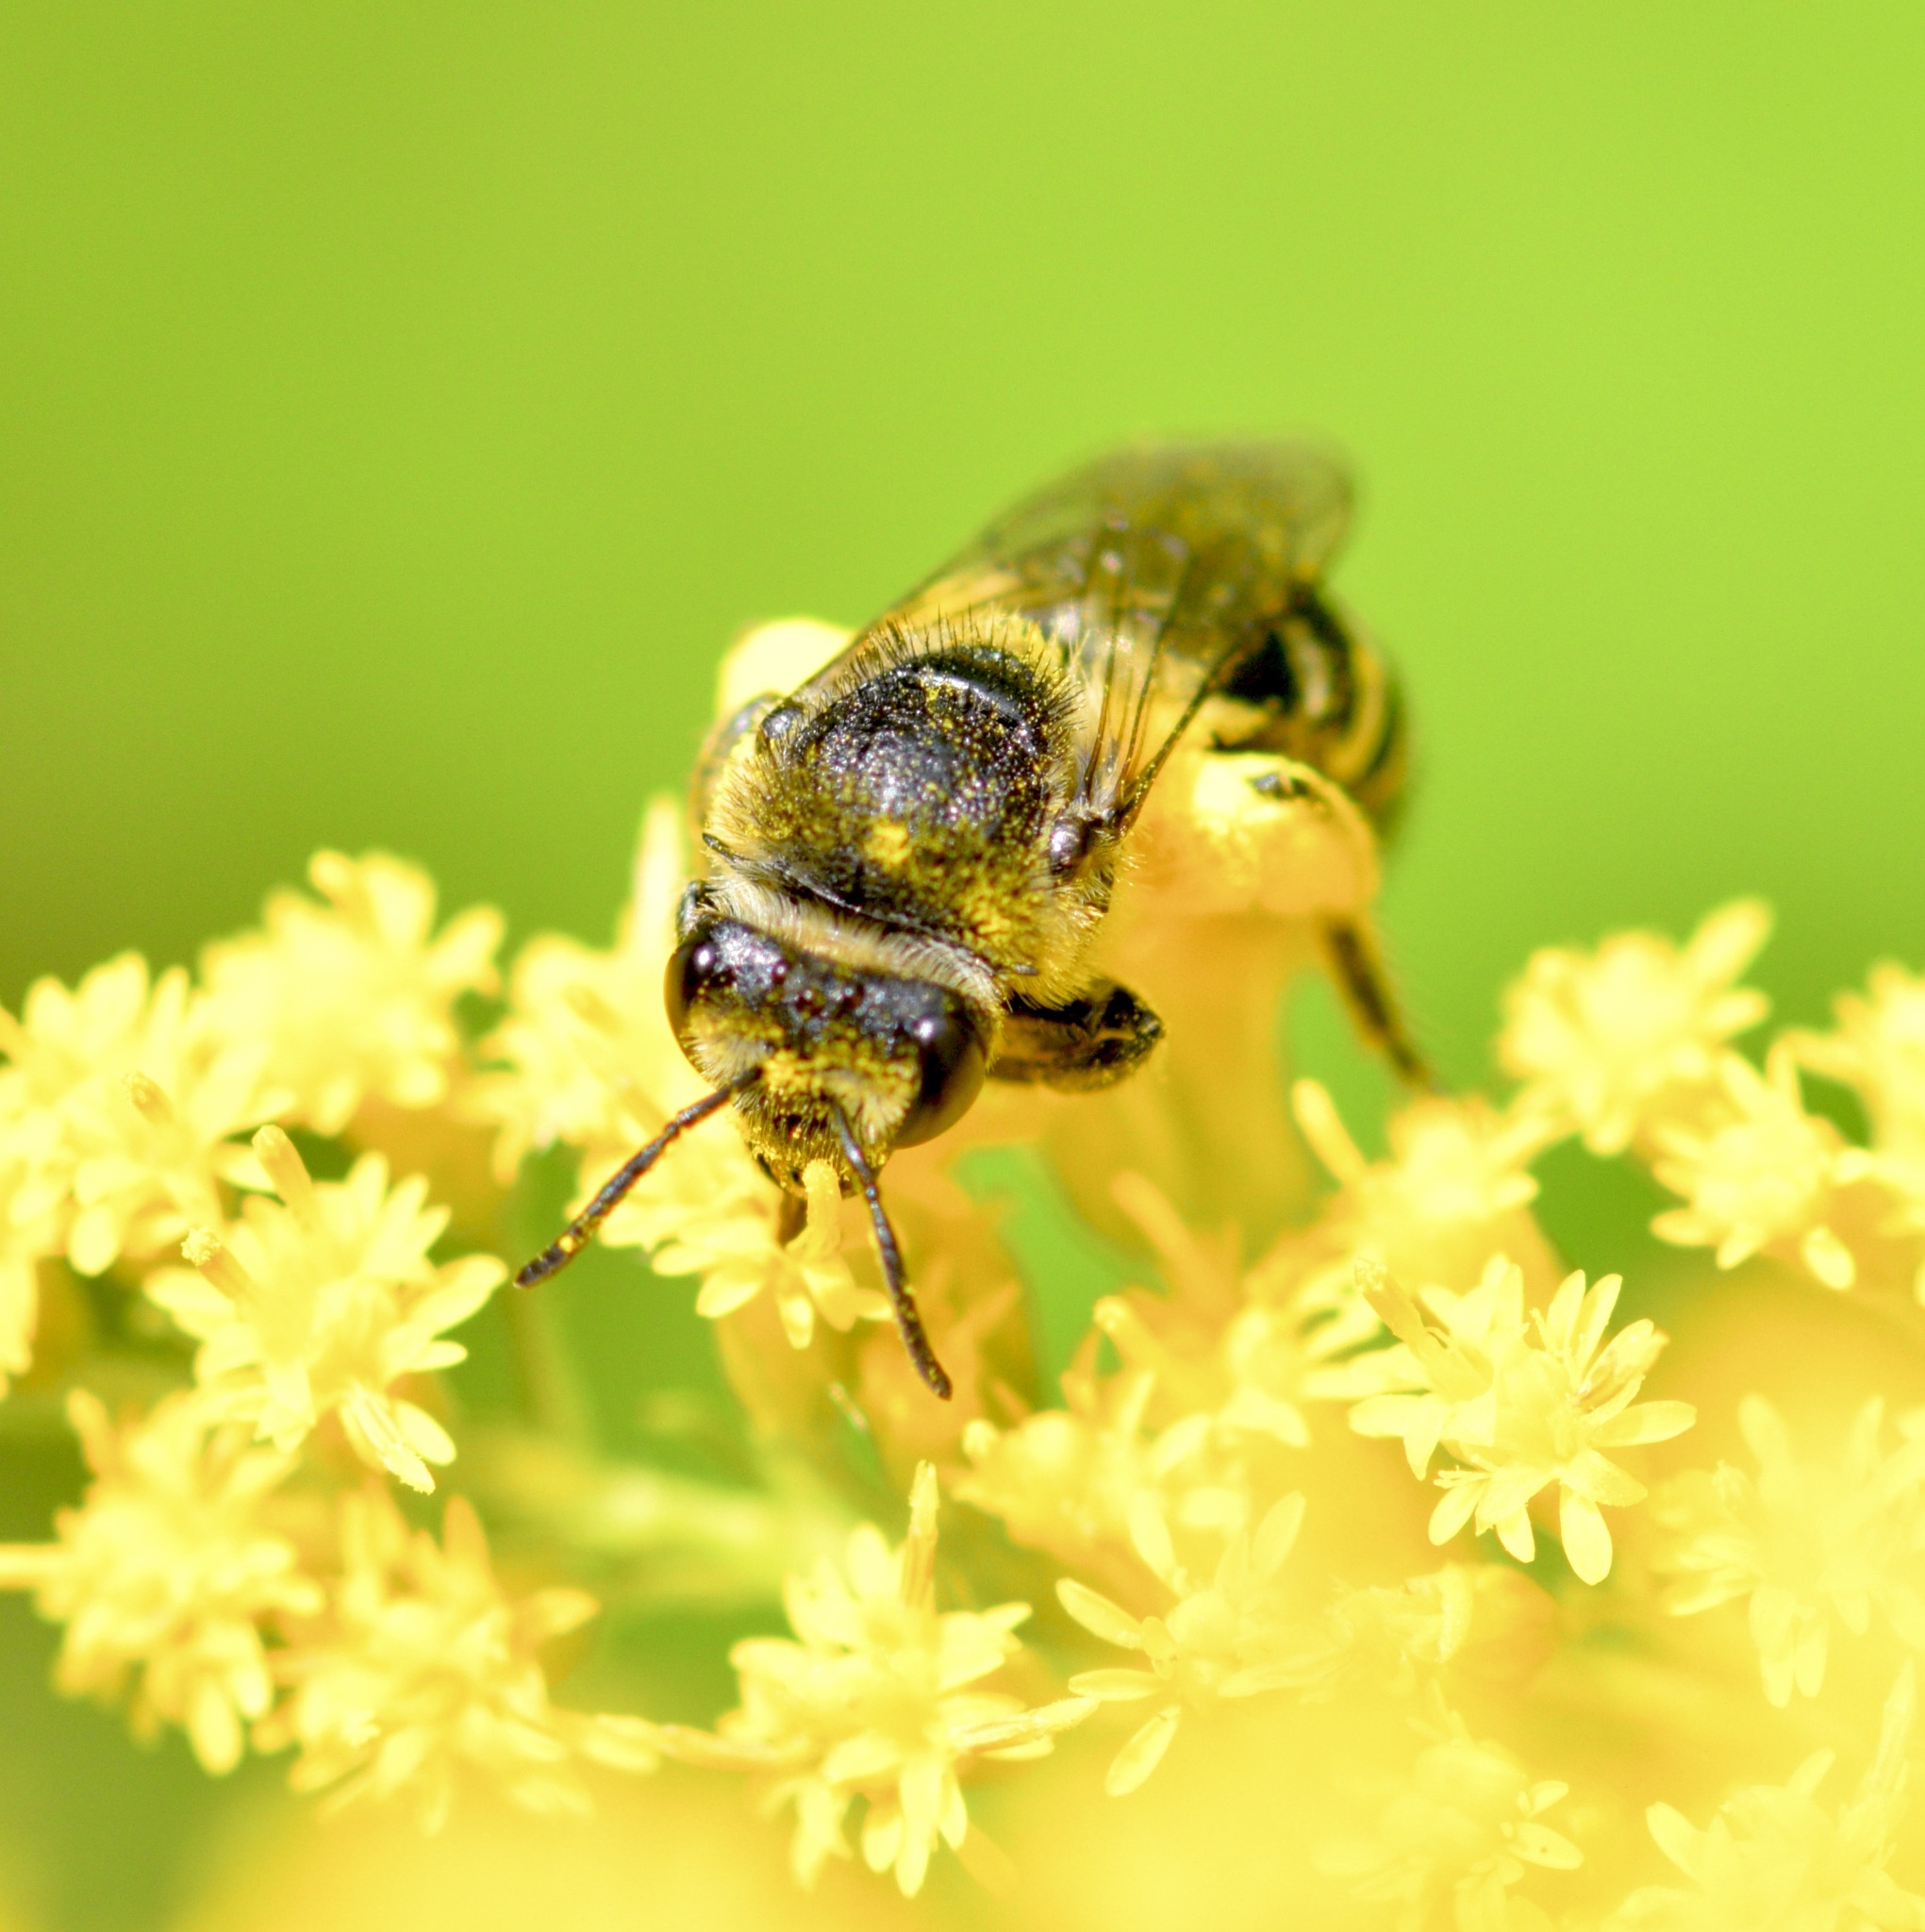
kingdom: Animalia
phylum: Arthropoda
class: Insecta
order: Hymenoptera
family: Colletidae
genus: Colletes
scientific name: Colletes simulans
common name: Spine-shouldered cellophane bee
